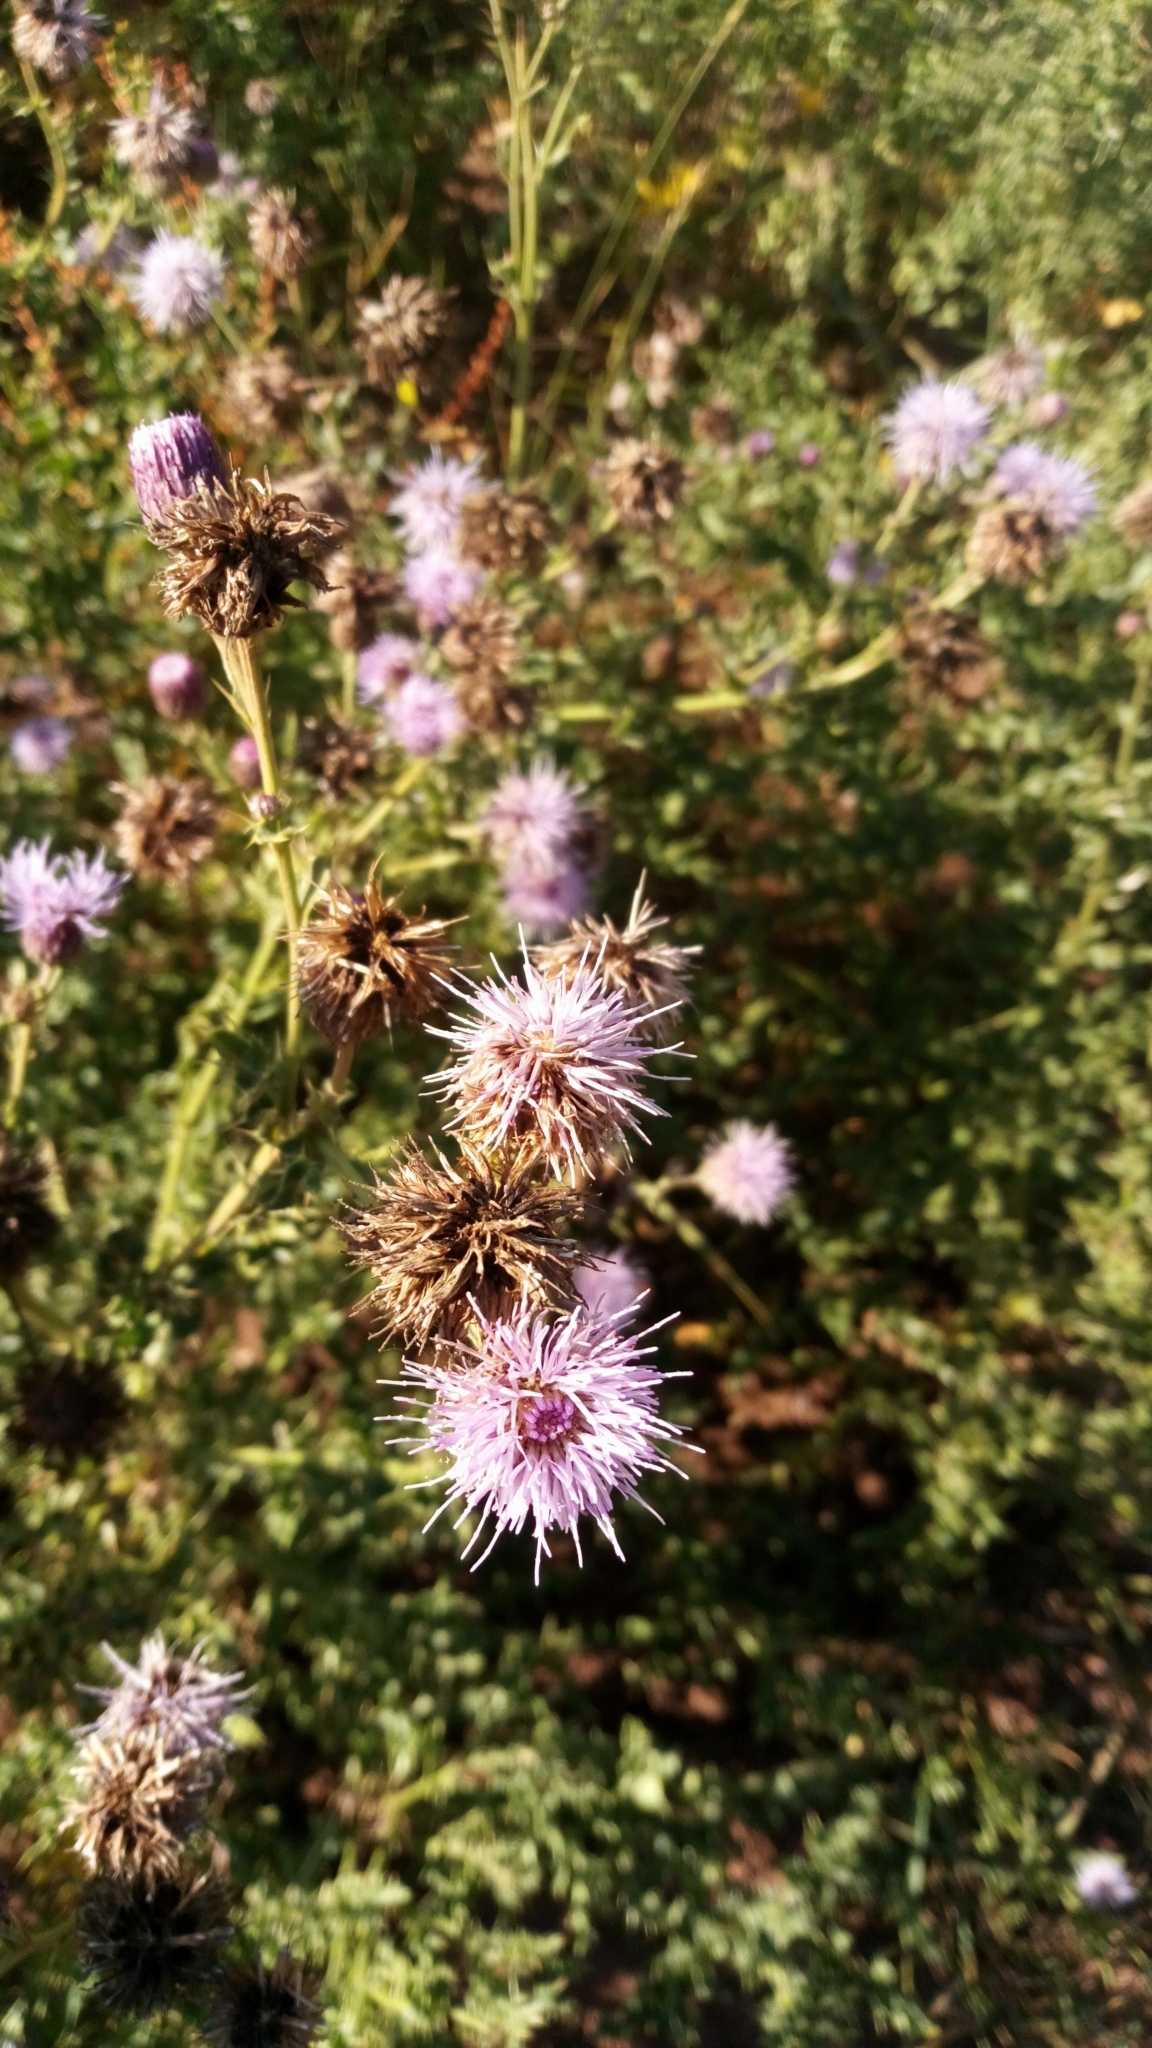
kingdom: Plantae
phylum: Tracheophyta
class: Magnoliopsida
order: Asterales
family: Asteraceae
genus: Cirsium
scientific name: Cirsium arvense
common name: Creeping thistle
